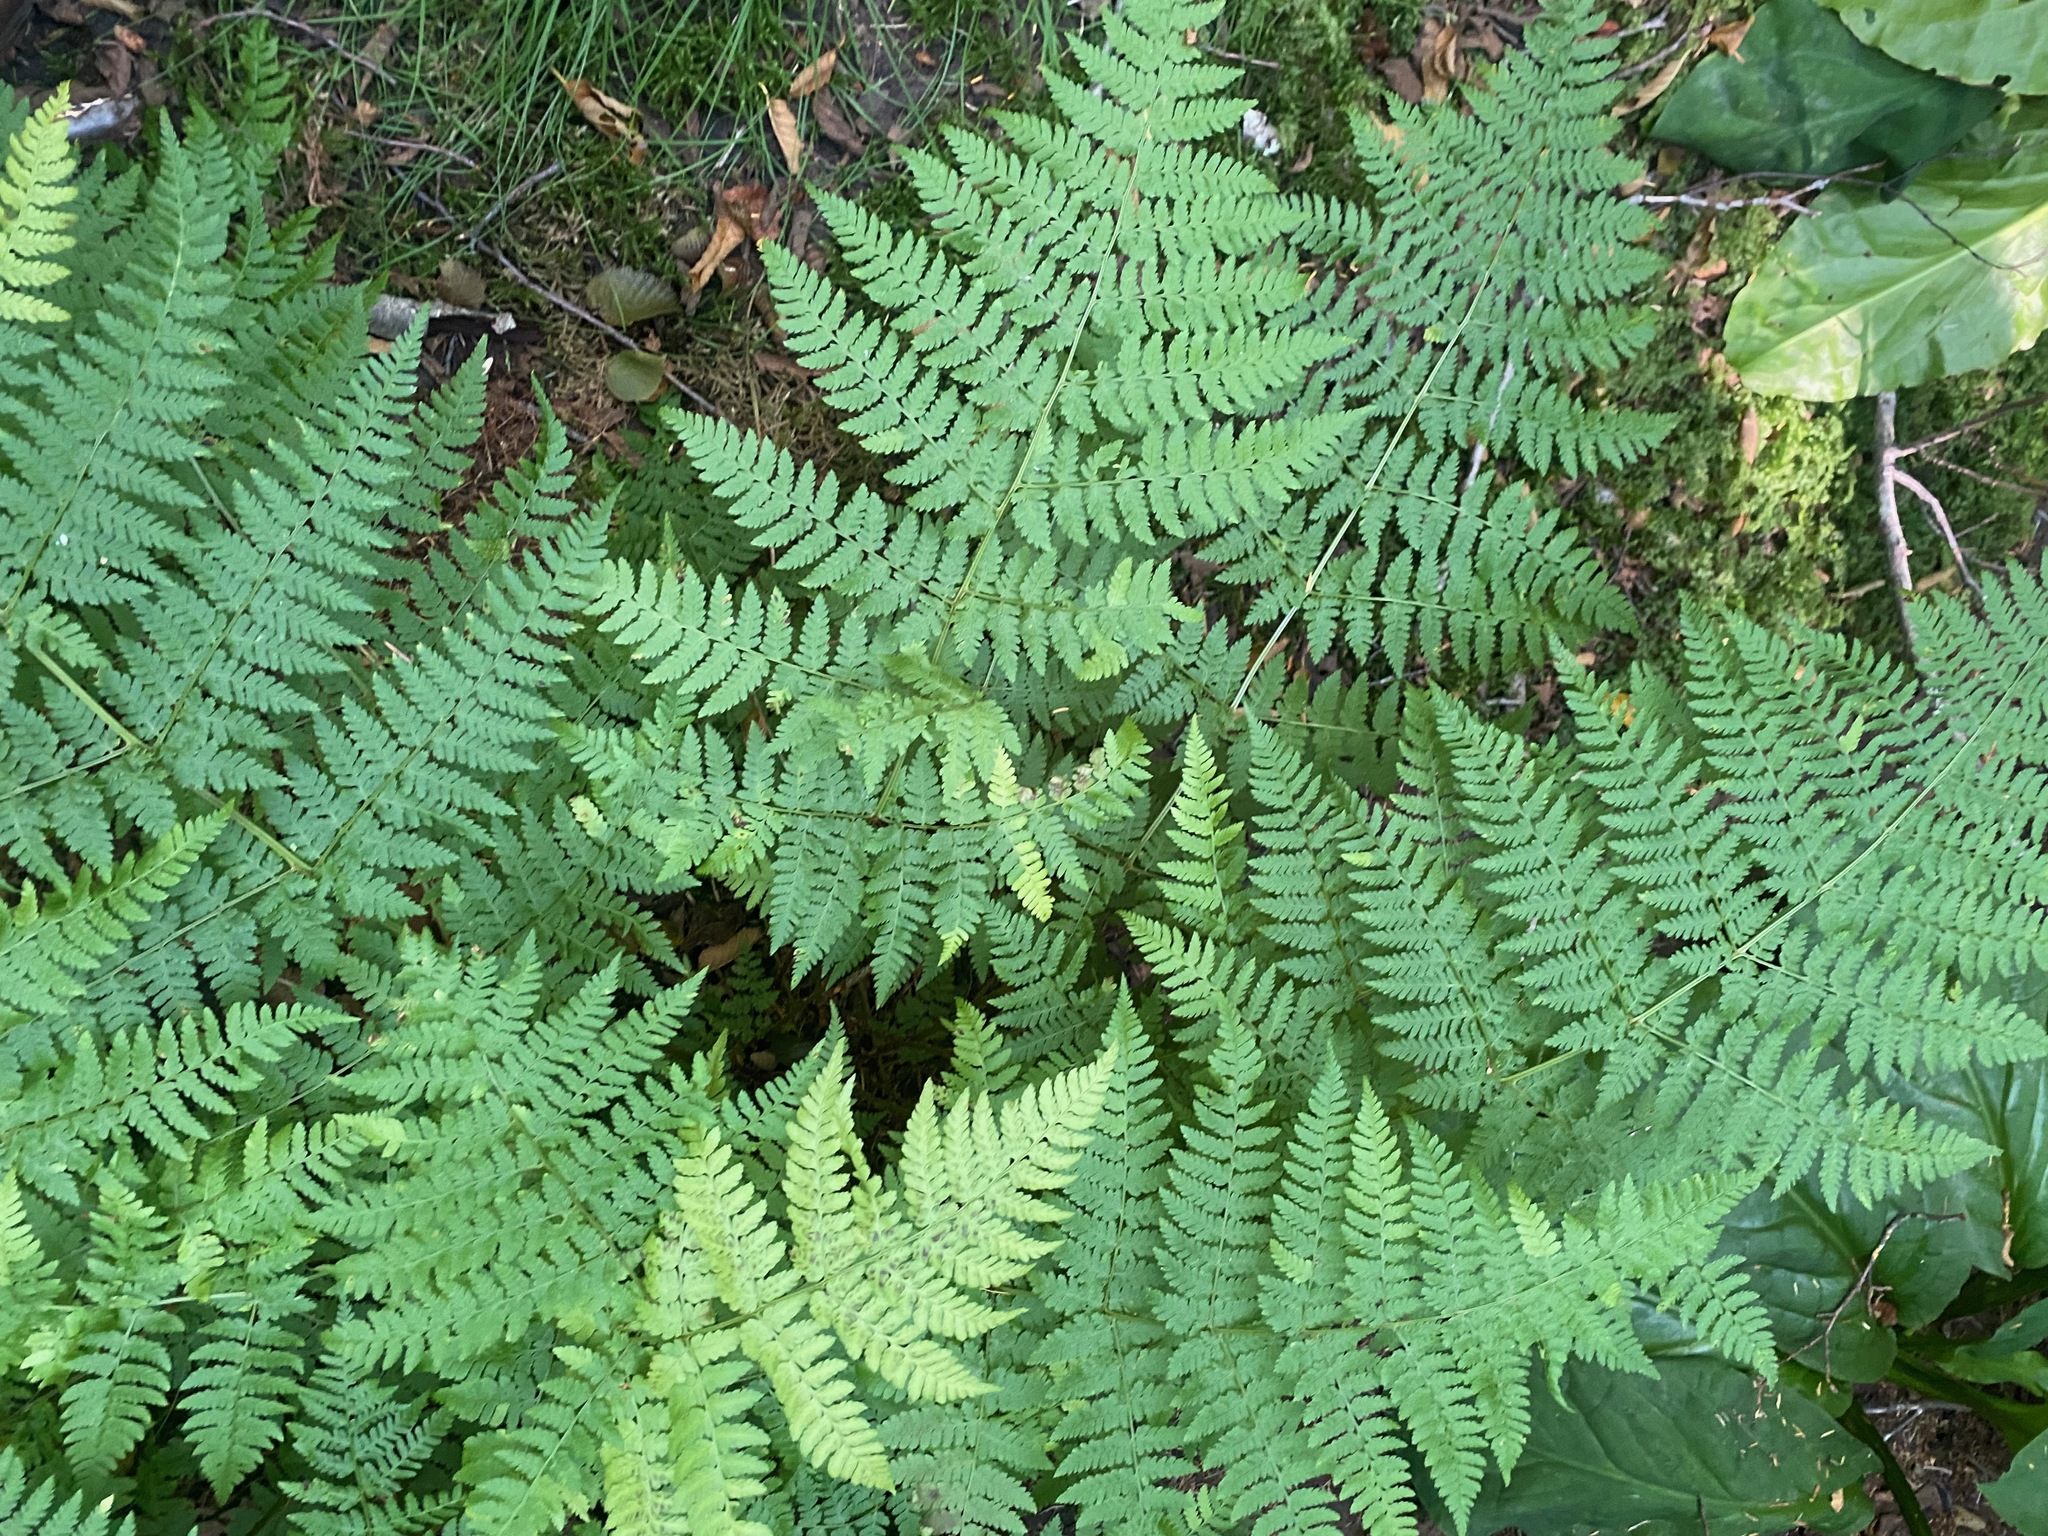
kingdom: Plantae
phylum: Tracheophyta
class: Polypodiopsida
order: Polypodiales
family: Dryopteridaceae
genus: Dryopteris
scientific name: Dryopteris expansa
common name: Northern buckler fern
